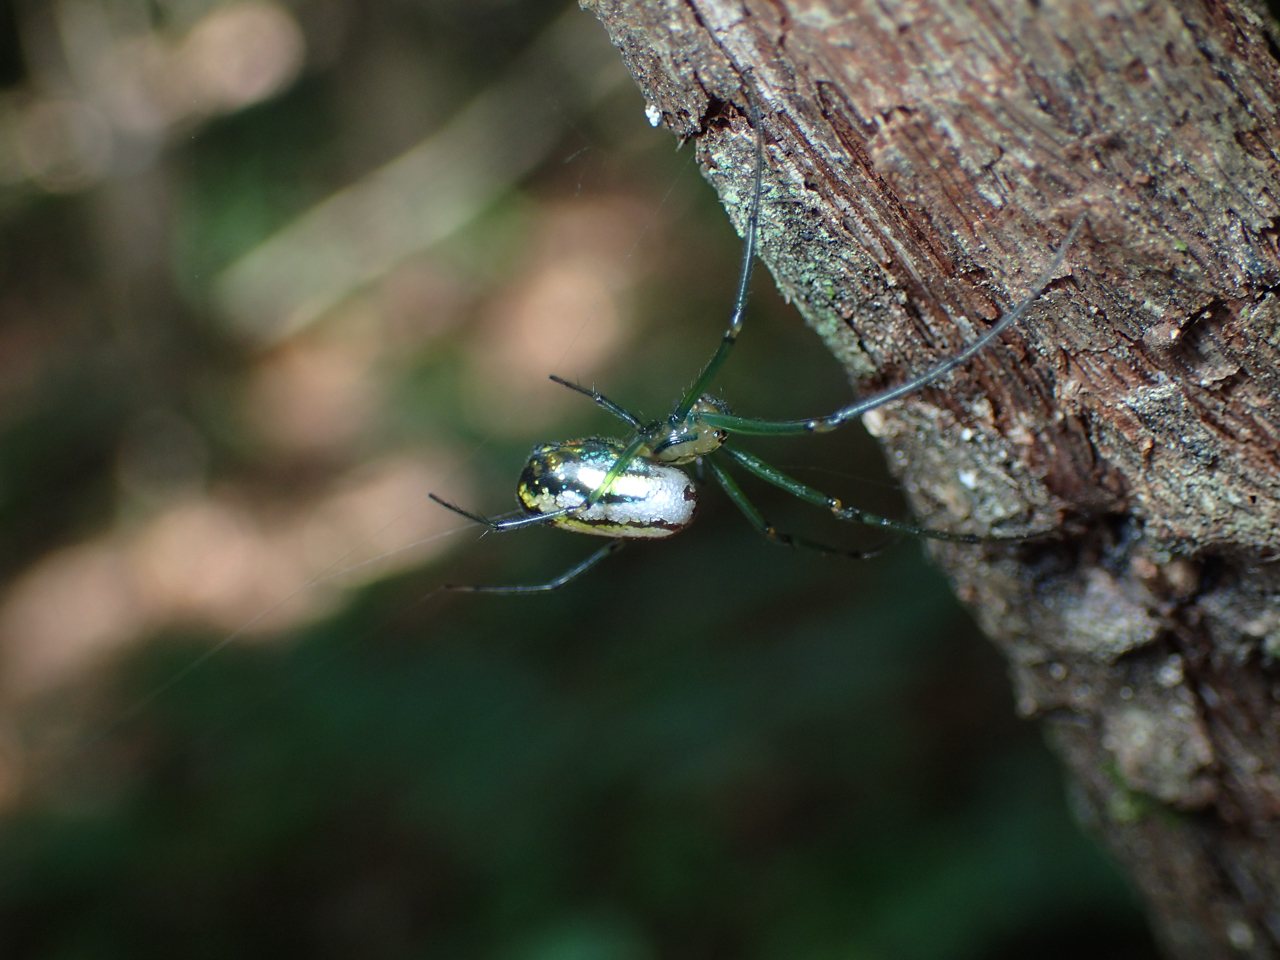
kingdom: Animalia
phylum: Arthropoda
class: Arachnida
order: Araneae
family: Tetragnathidae
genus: Leucauge
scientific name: Leucauge venusta
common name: Longjawed orb weavers
